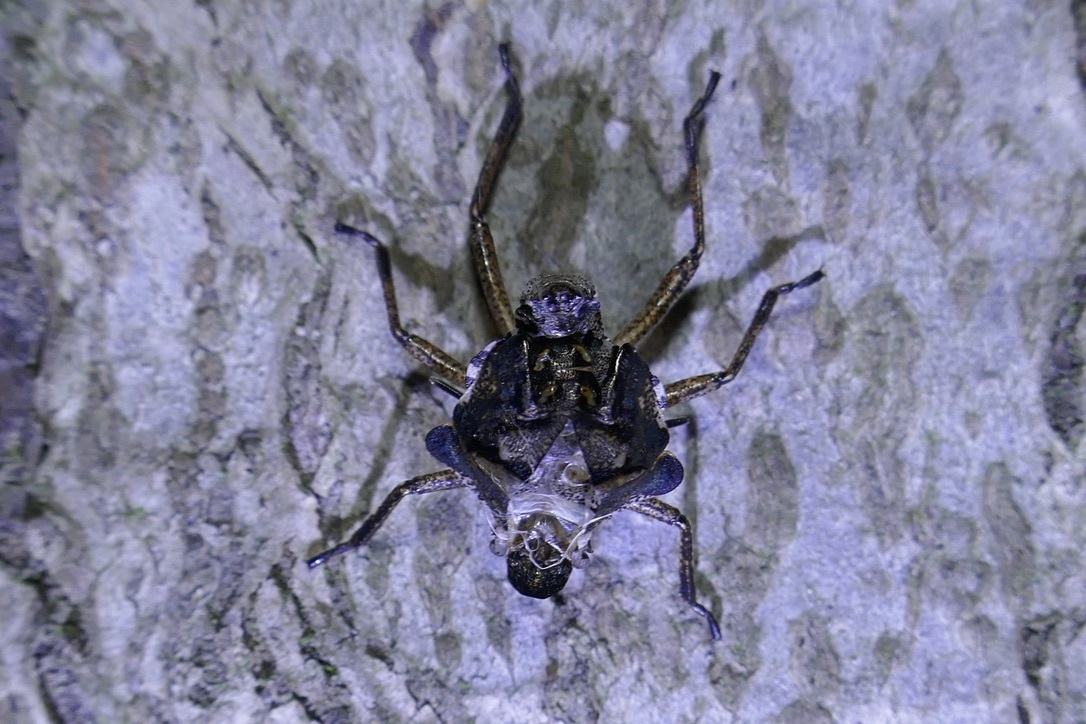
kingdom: Animalia
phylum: Arthropoda
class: Insecta
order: Hemiptera
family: Pentatomidae
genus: Pentatoma
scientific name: Pentatoma rufipes
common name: Forest bug
